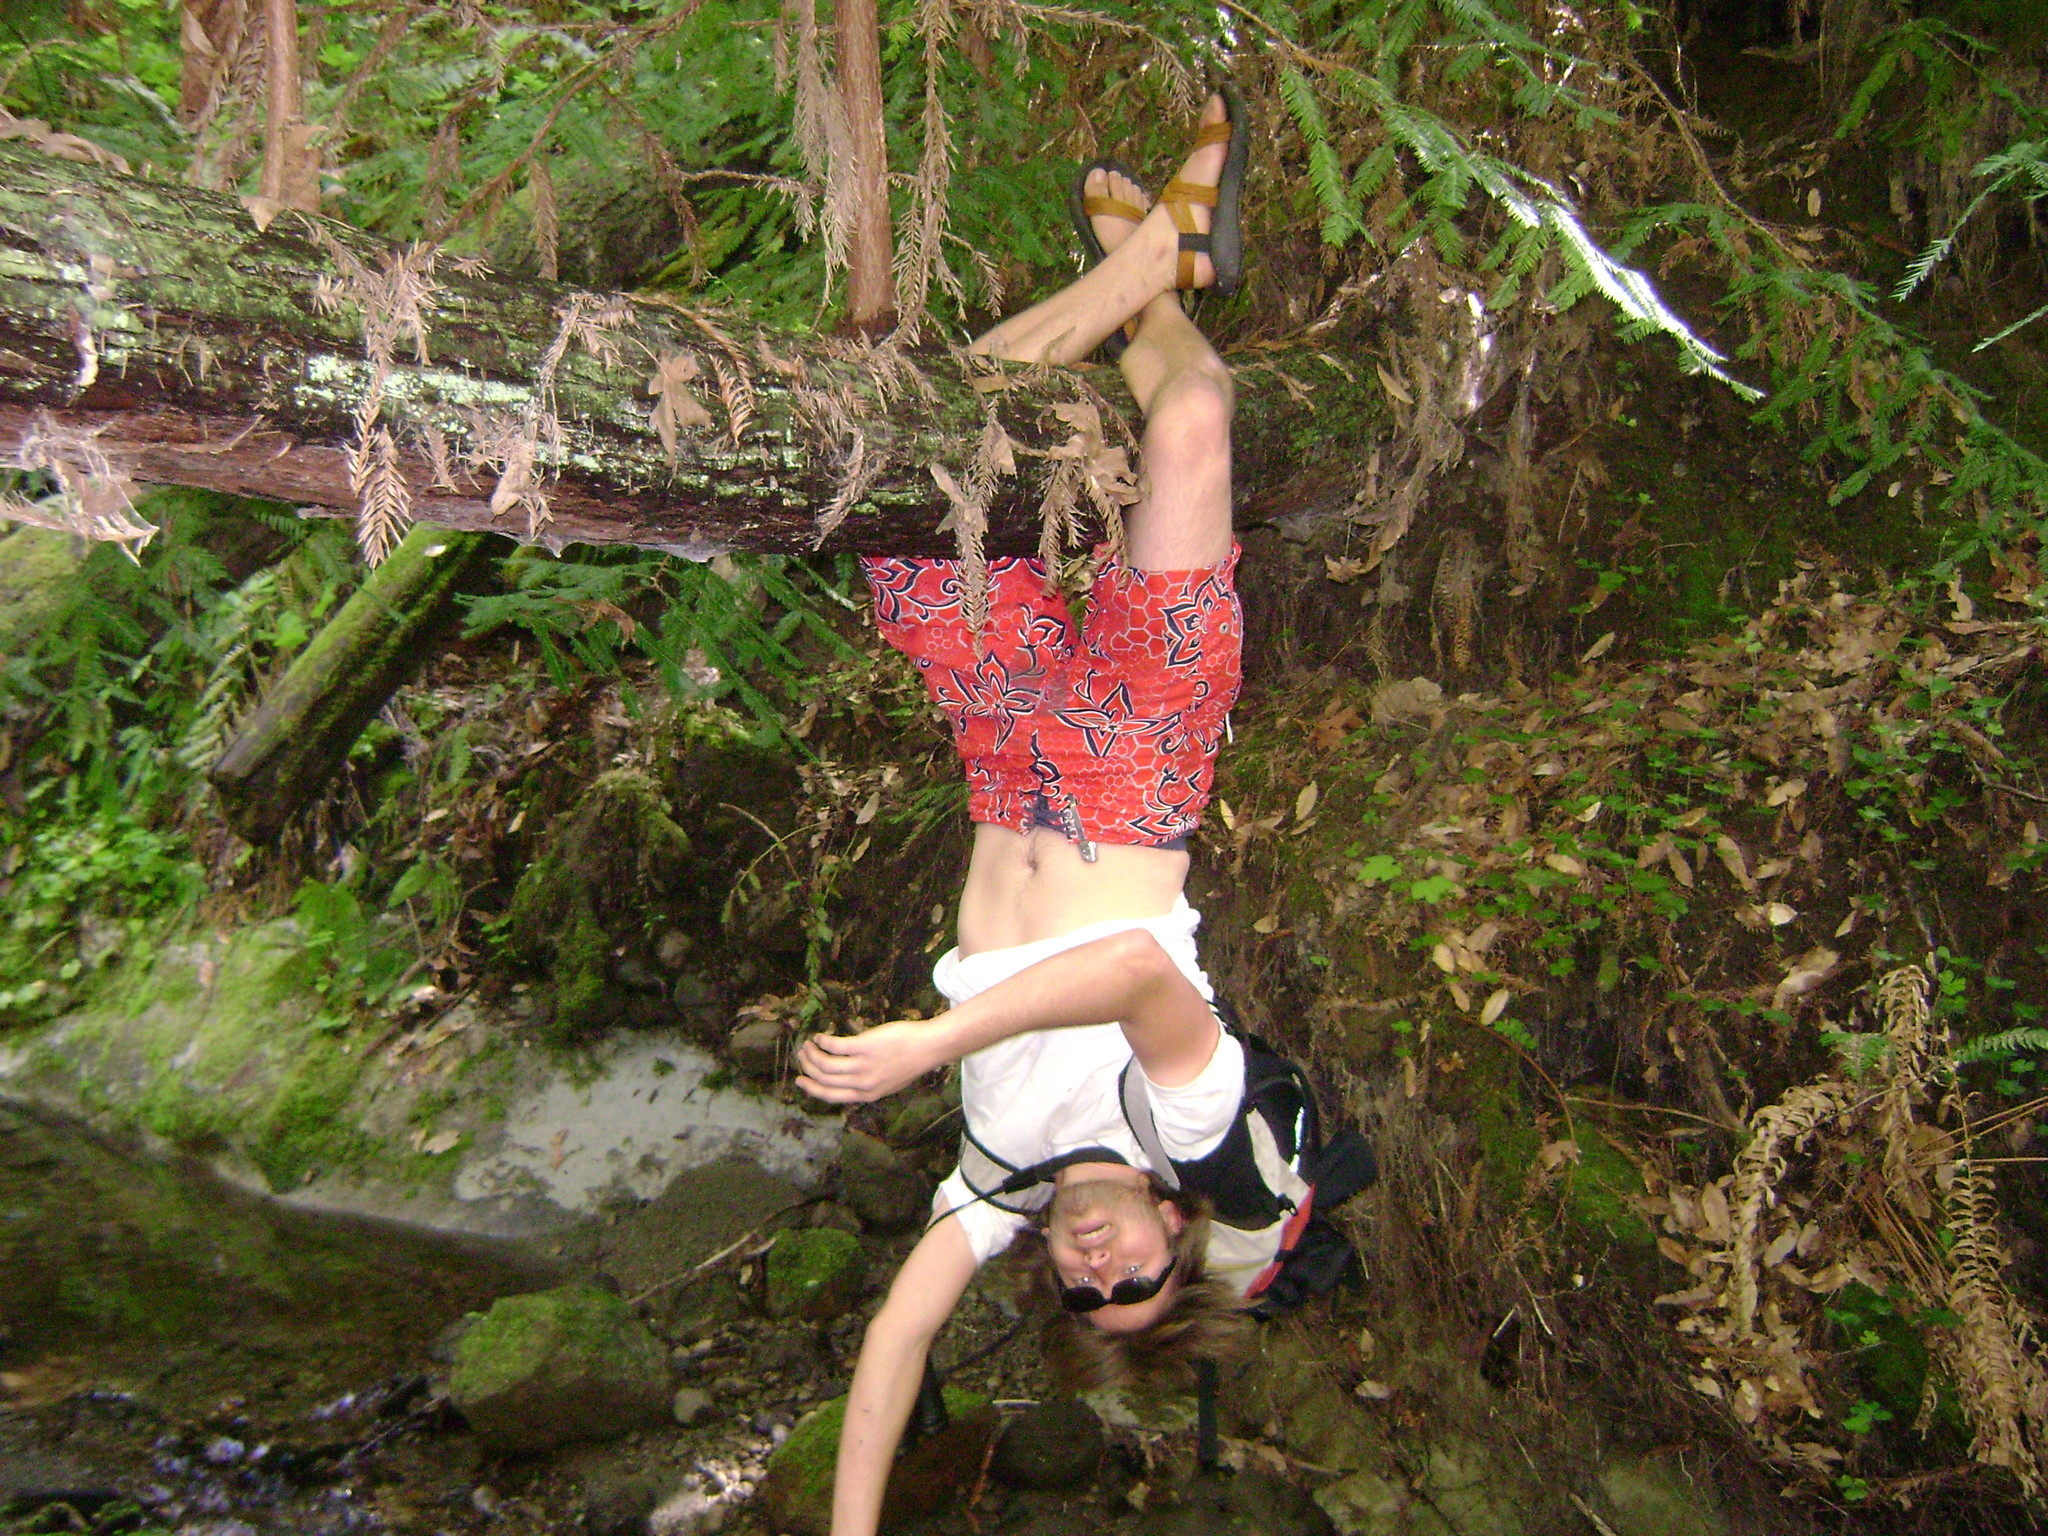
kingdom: Plantae
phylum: Tracheophyta
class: Pinopsida
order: Pinales
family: Cupressaceae
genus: Sequoia
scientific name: Sequoia sempervirens
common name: Coast redwood
